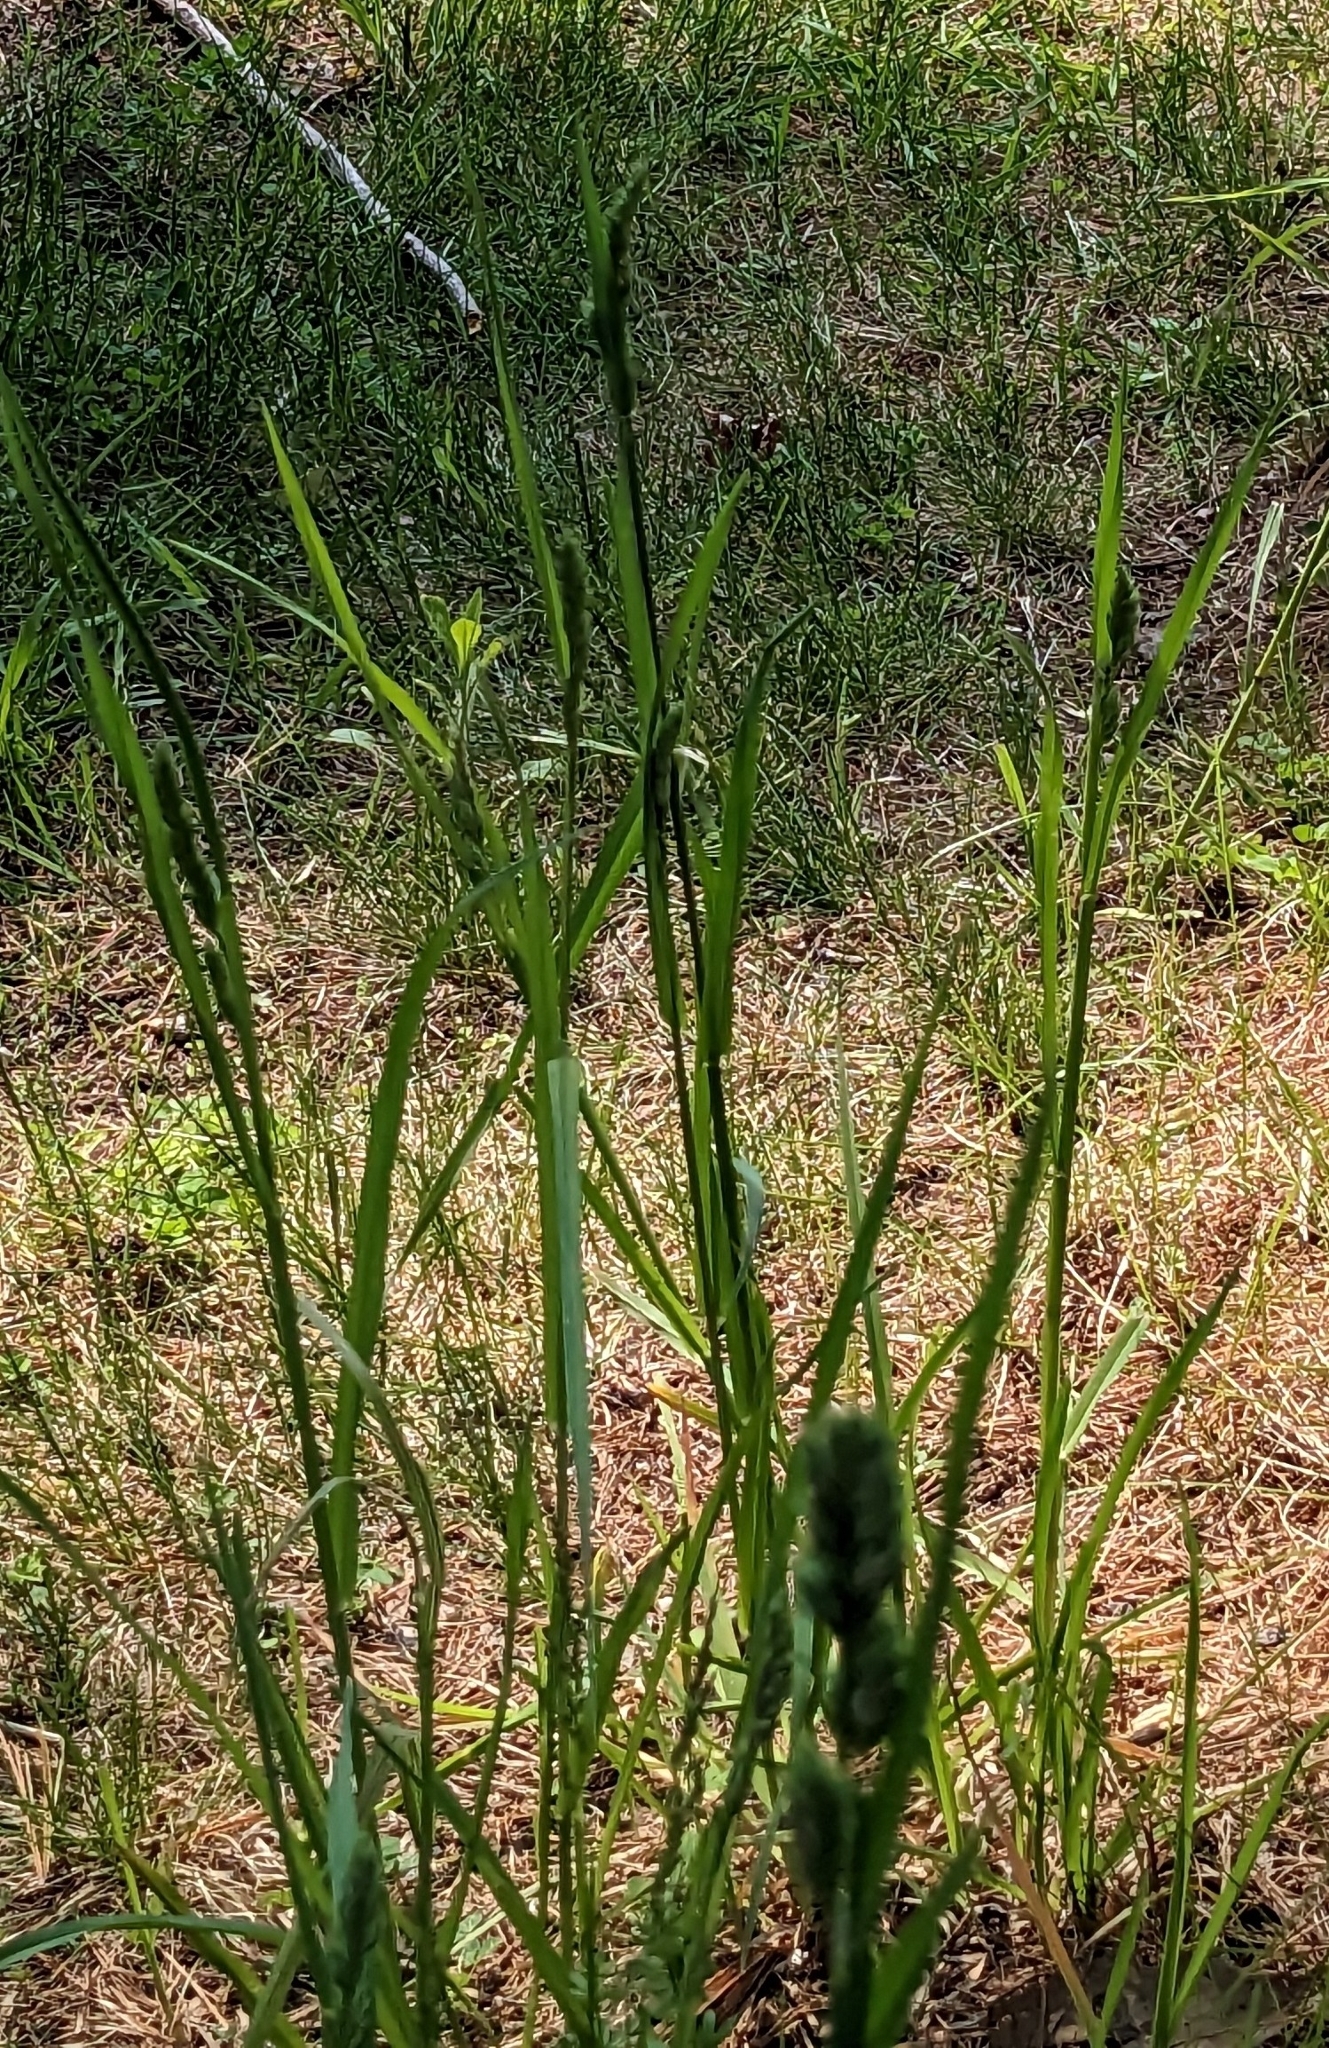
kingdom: Plantae
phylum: Tracheophyta
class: Liliopsida
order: Poales
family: Poaceae
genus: Dactylis
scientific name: Dactylis glomerata
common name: Orchardgrass
